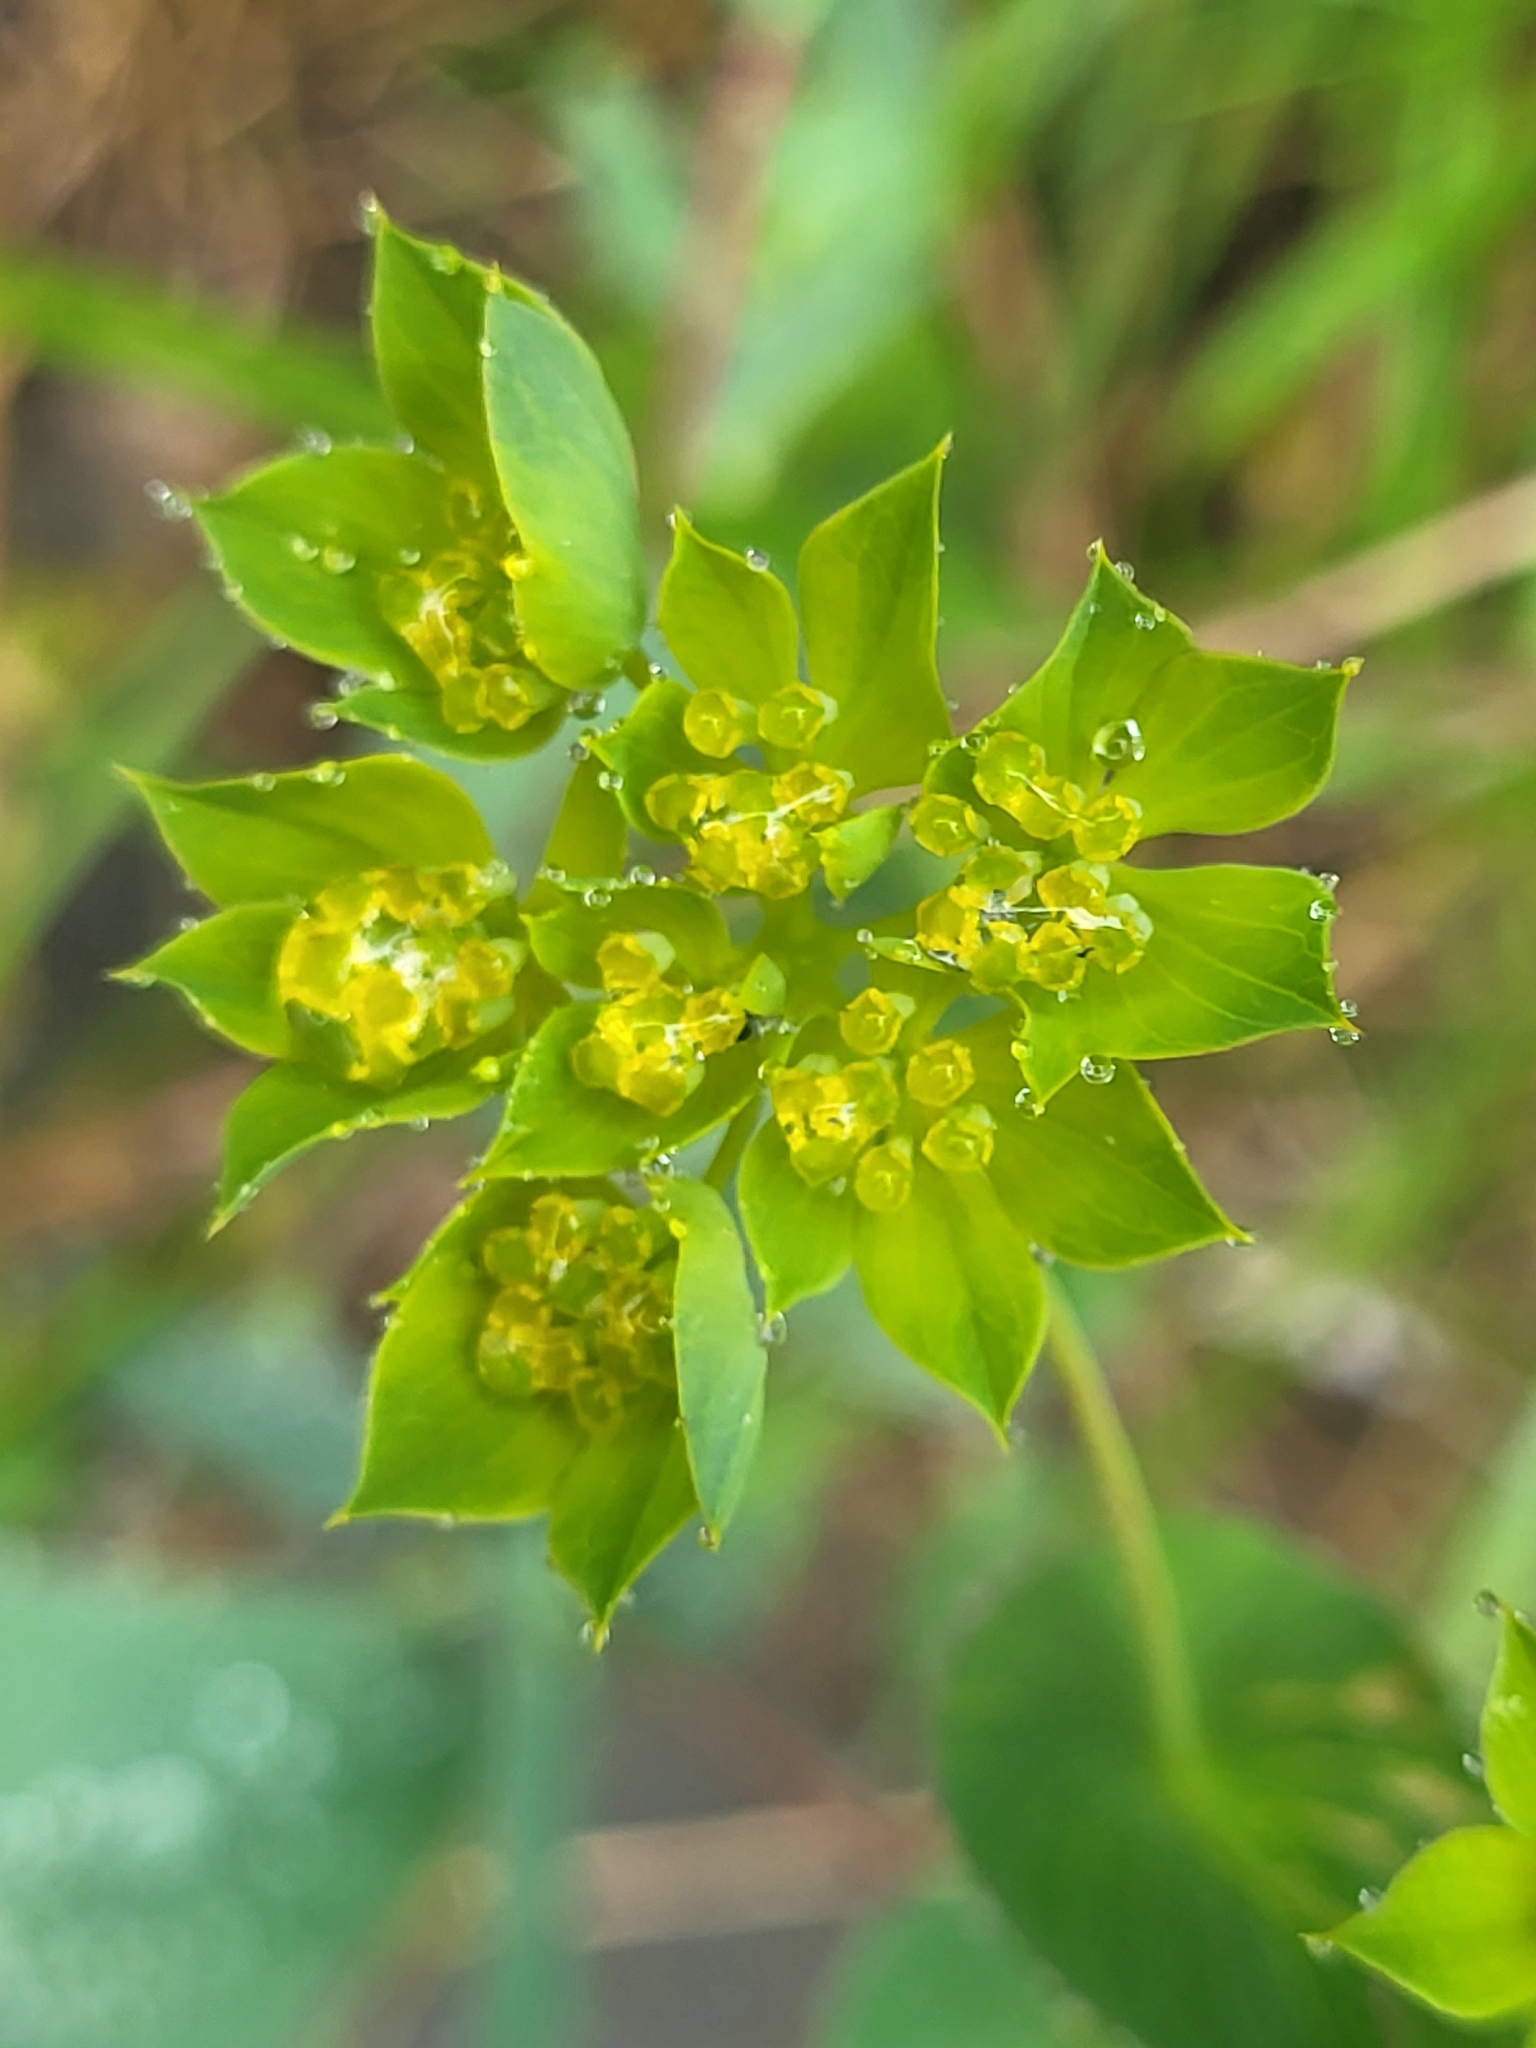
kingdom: Plantae
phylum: Tracheophyta
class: Magnoliopsida
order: Apiales
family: Apiaceae
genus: Bupleurum
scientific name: Bupleurum rotundifolium
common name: Thorow-wax
